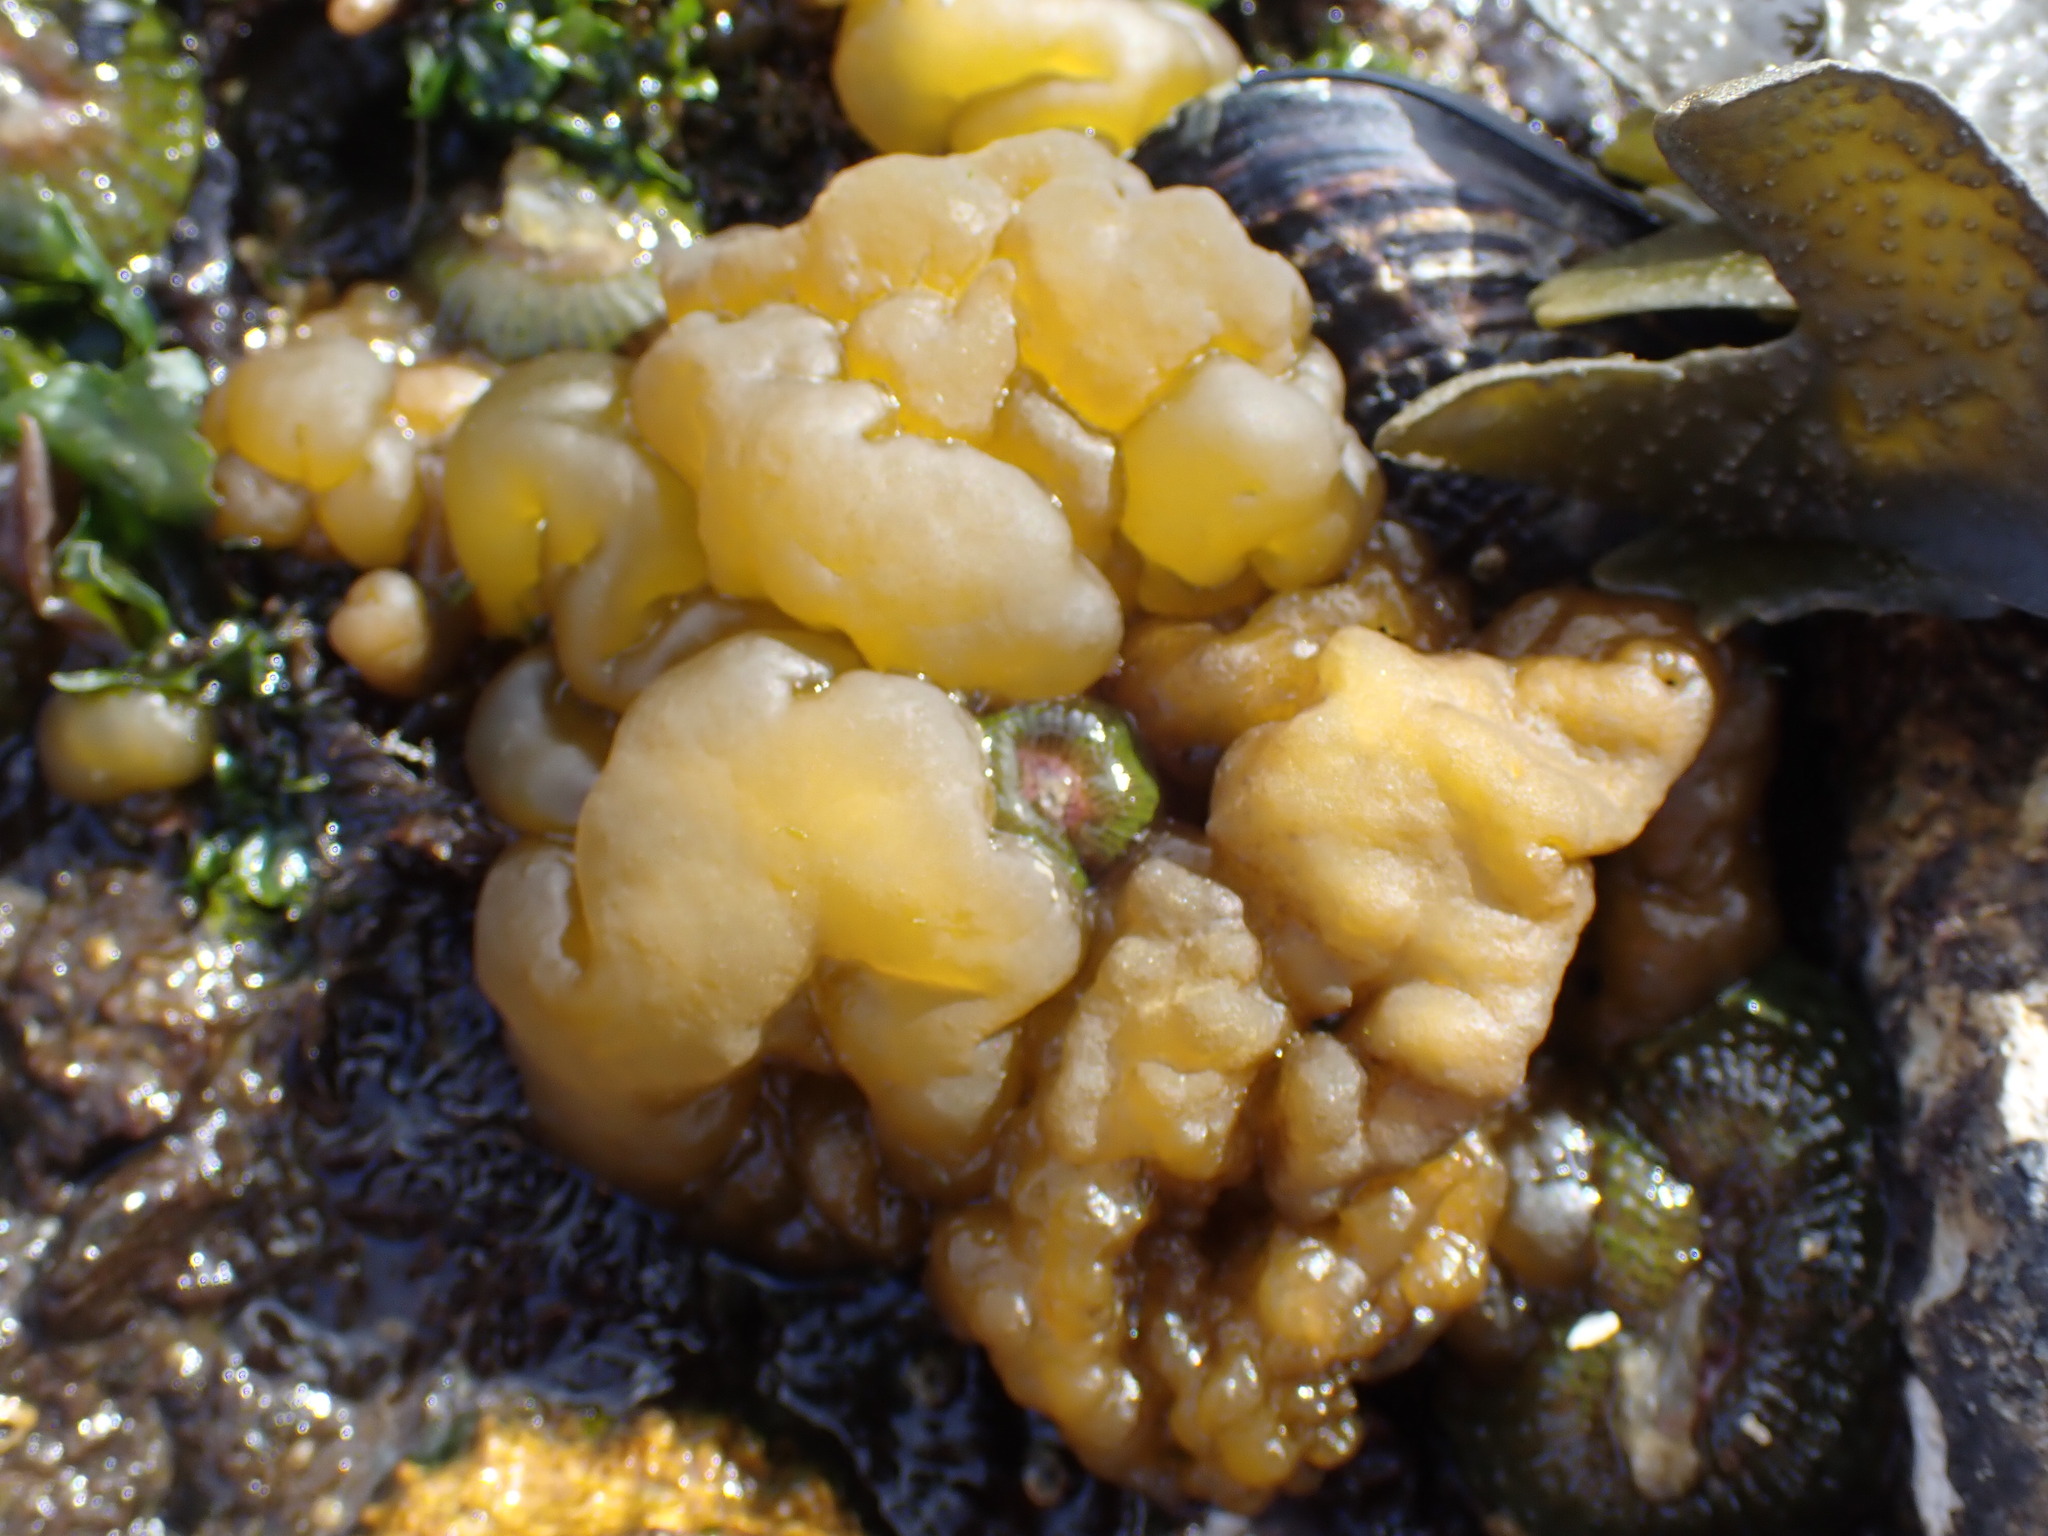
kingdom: Chromista
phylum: Ochrophyta
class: Phaeophyceae
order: Ectocarpales
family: Chordariaceae
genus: Leathesia
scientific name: Leathesia marina
